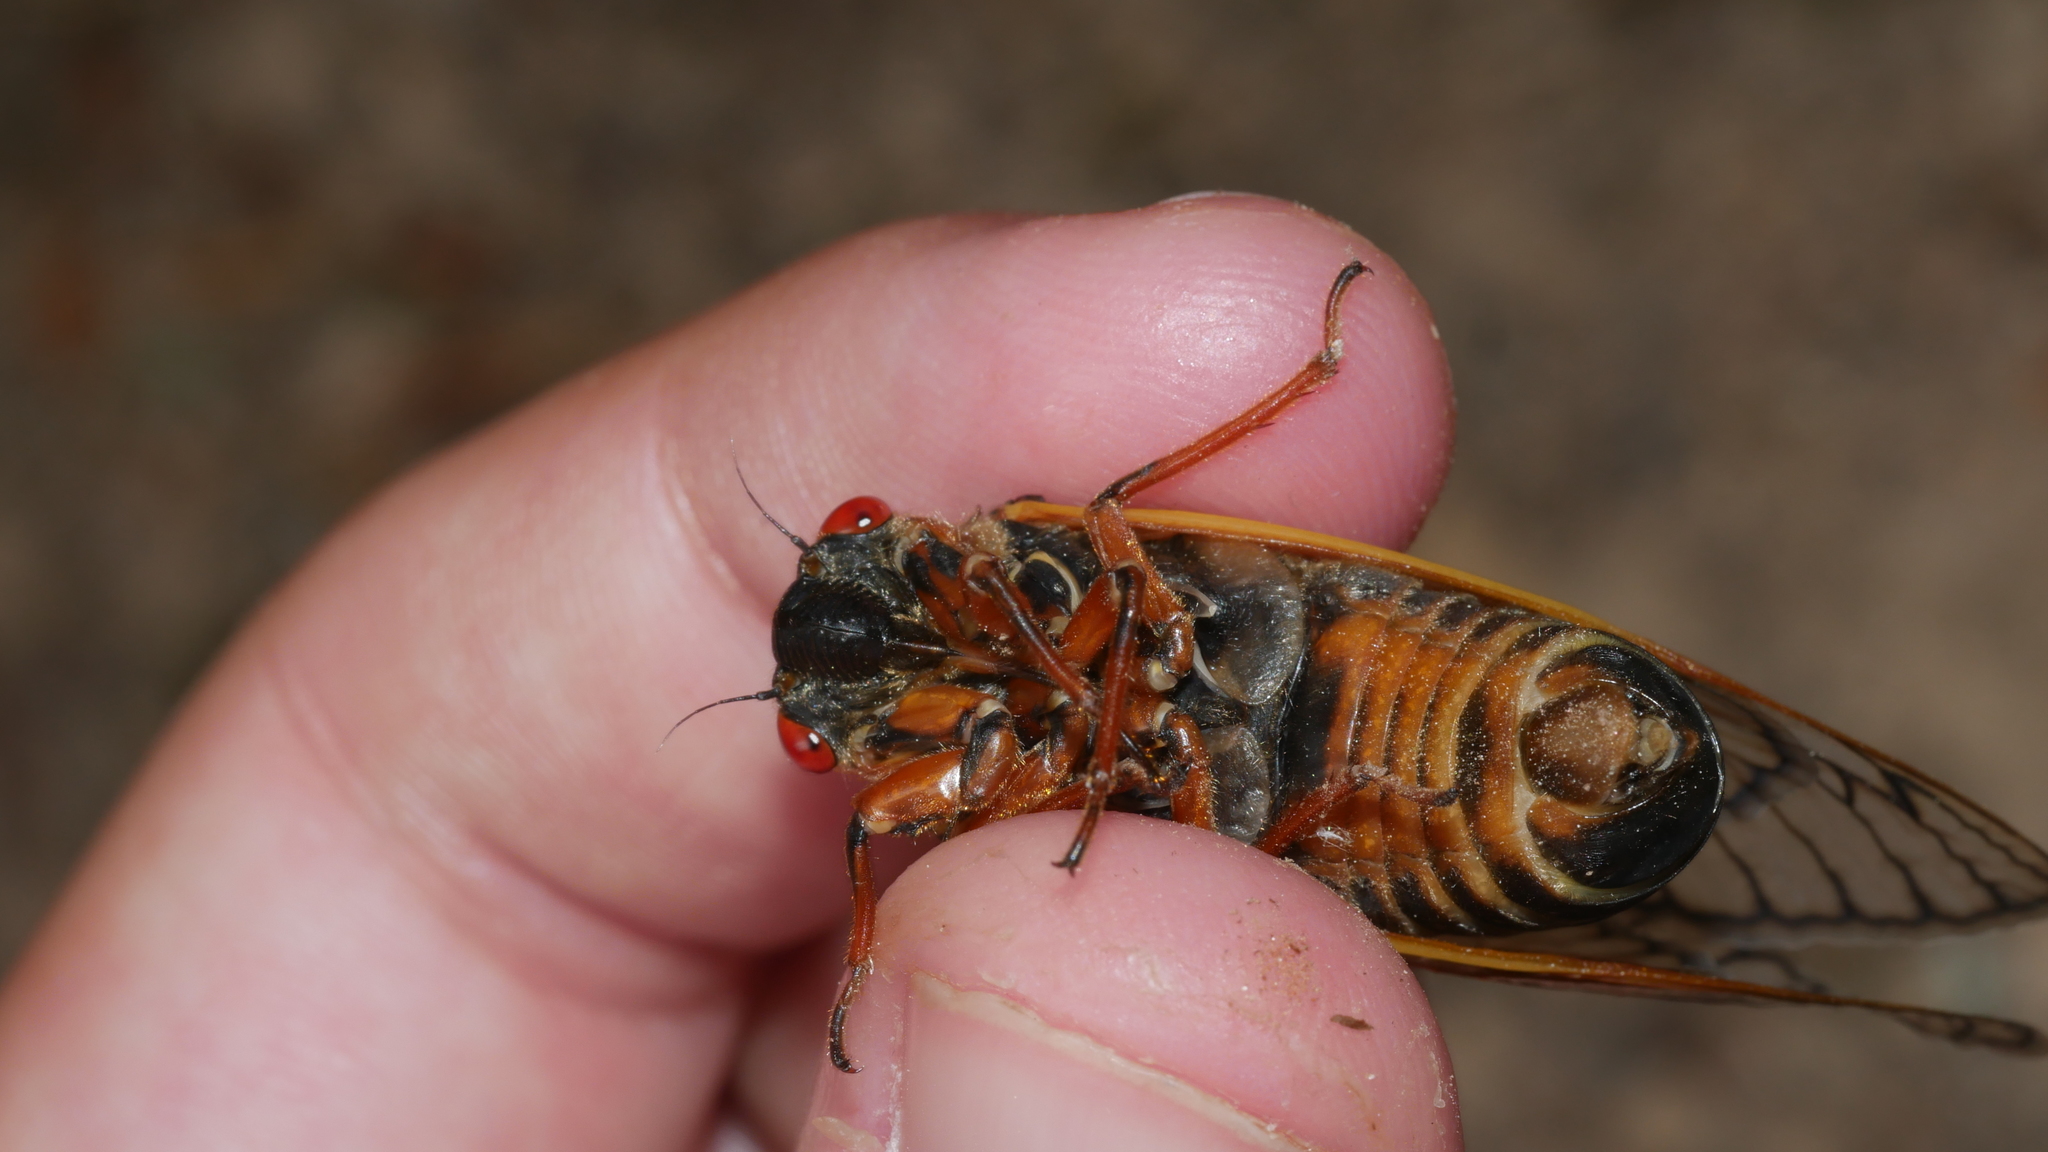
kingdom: Animalia
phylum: Arthropoda
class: Insecta
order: Hemiptera
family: Cicadidae
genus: Magicicada
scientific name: Magicicada septendecim
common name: Periodical cicada
